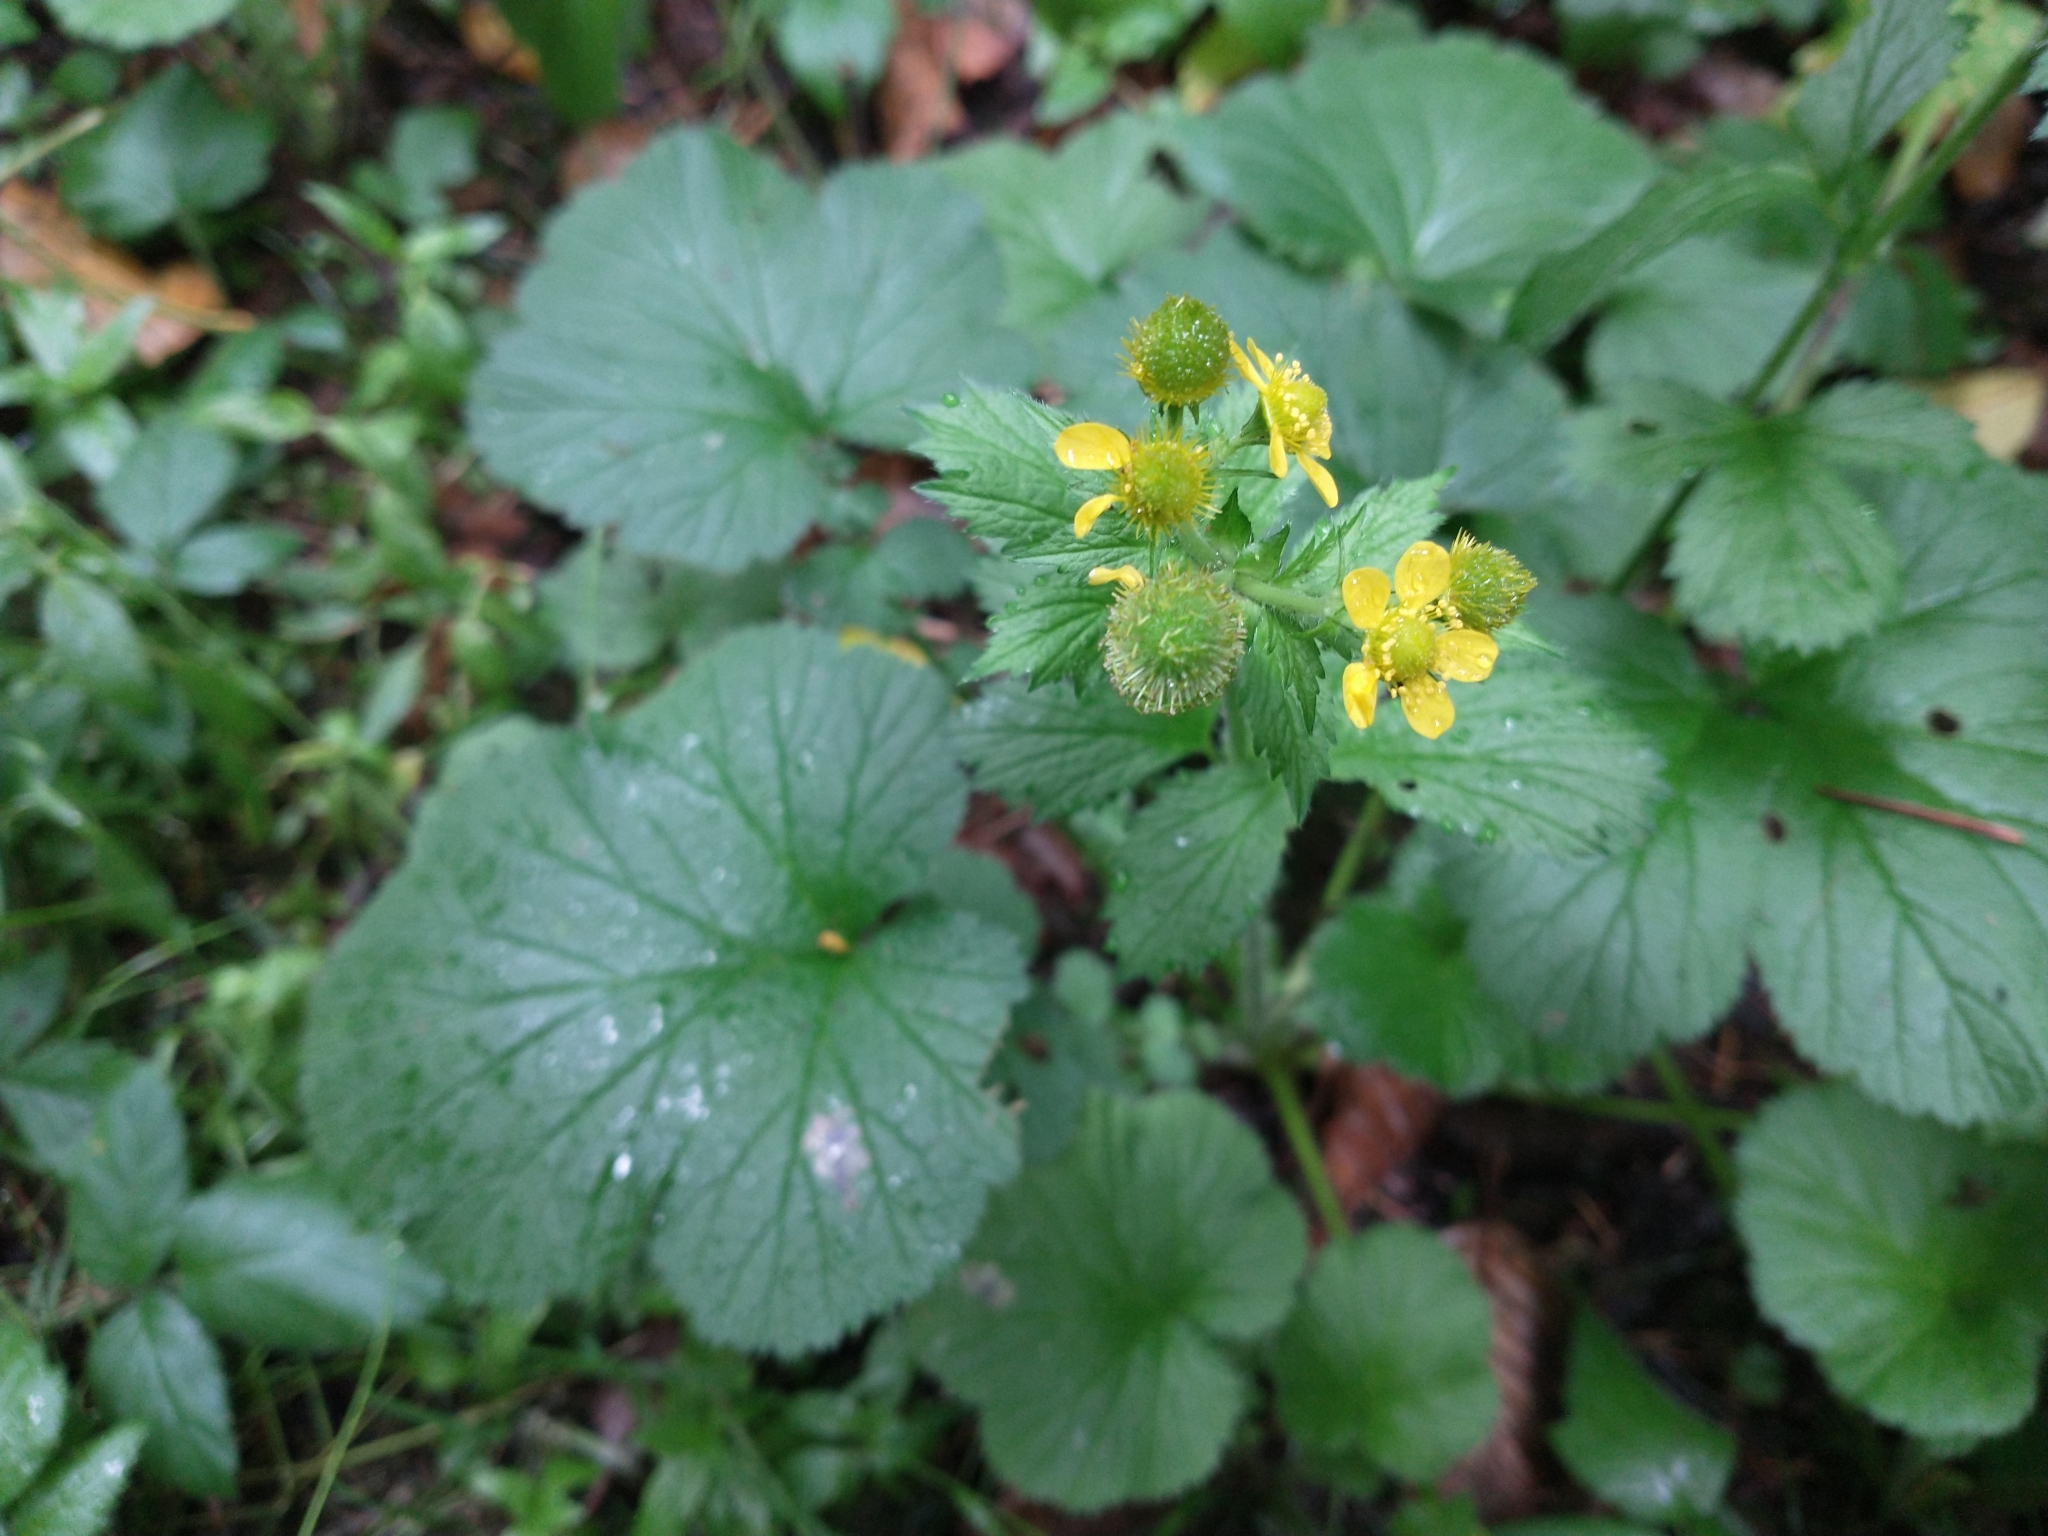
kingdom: Plantae
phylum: Tracheophyta
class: Magnoliopsida
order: Rosales
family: Rosaceae
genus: Geum
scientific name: Geum macrophyllum
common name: Large-leaved avens
